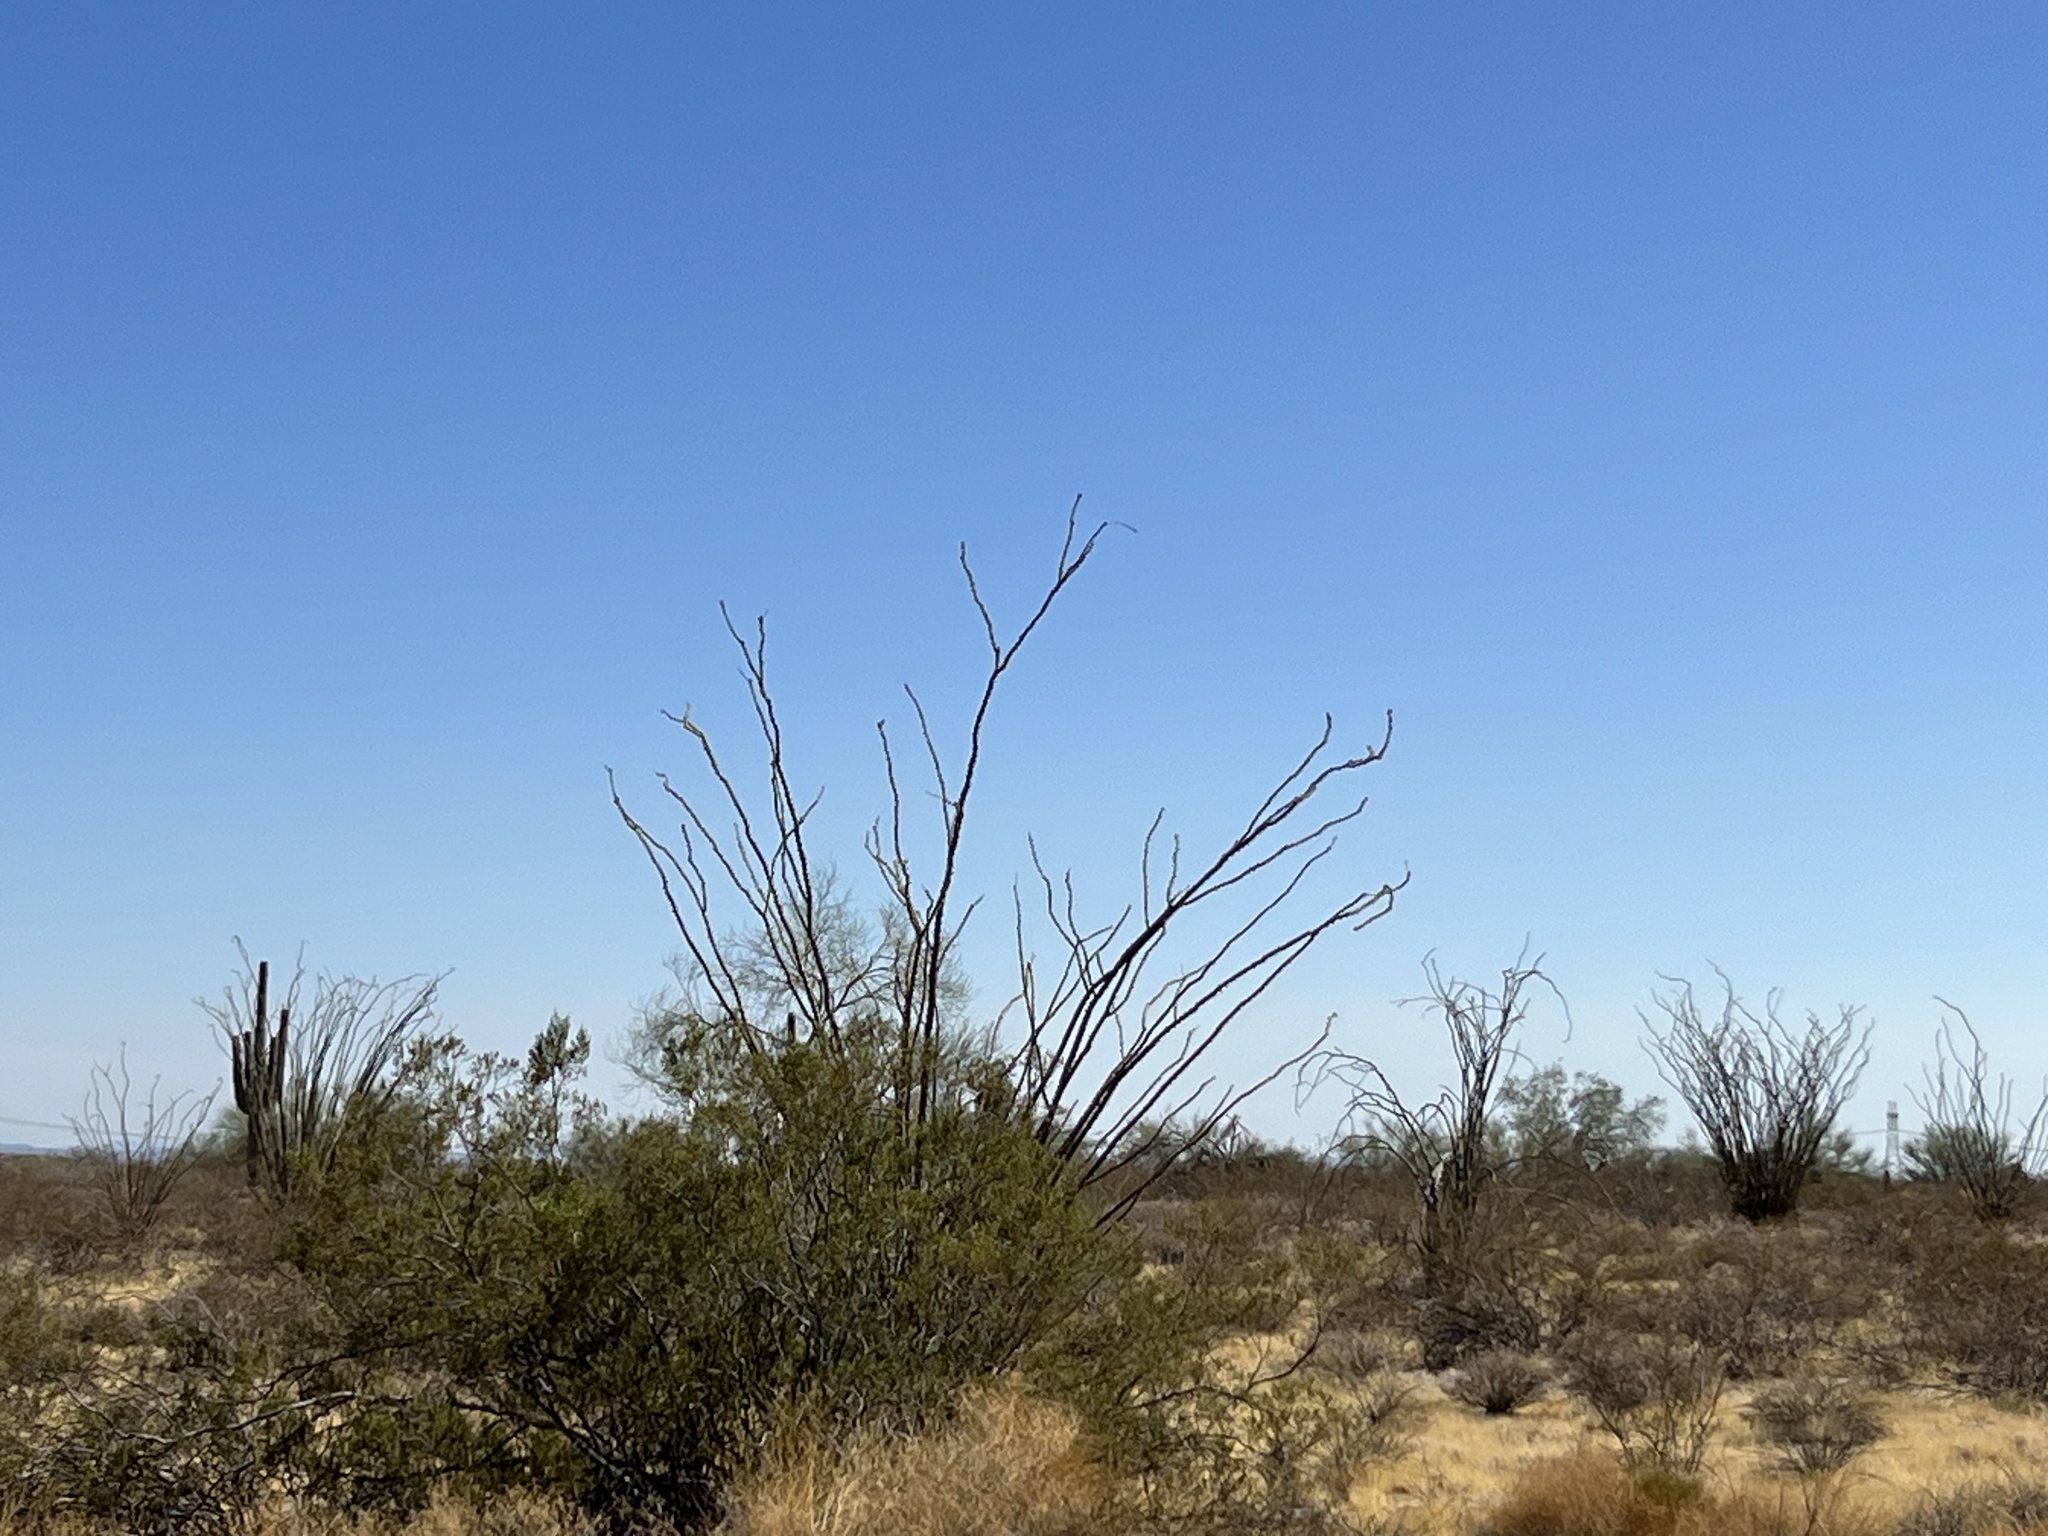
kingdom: Plantae
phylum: Tracheophyta
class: Magnoliopsida
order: Ericales
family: Fouquieriaceae
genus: Fouquieria
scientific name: Fouquieria splendens
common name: Vine-cactus
